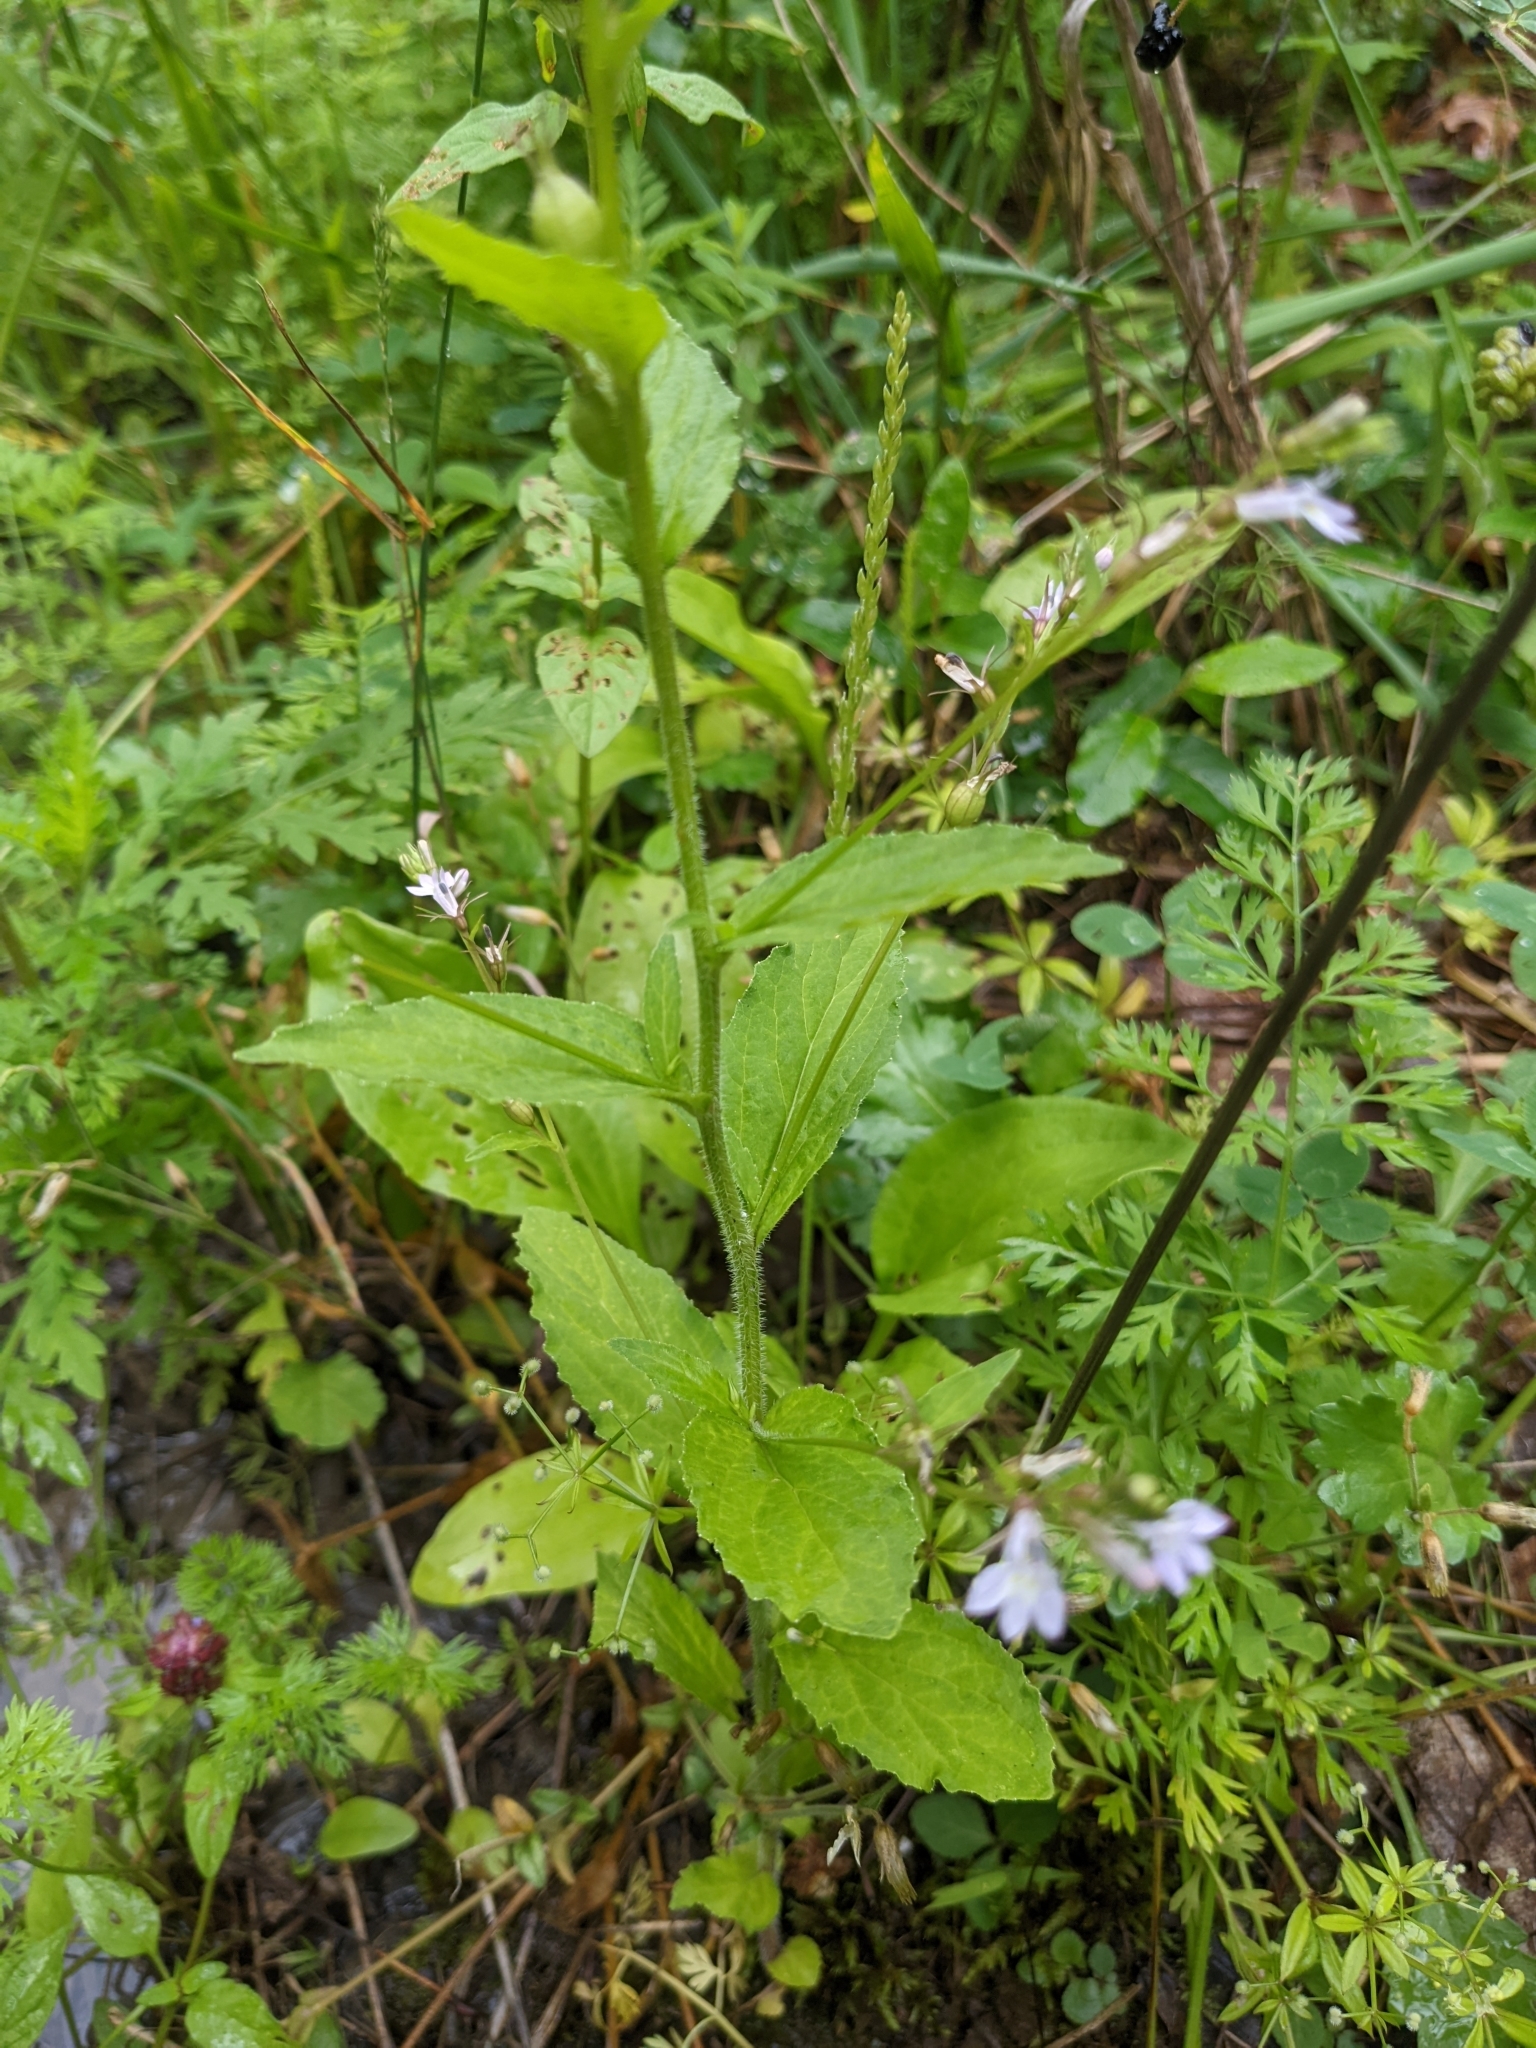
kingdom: Plantae
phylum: Tracheophyta
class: Magnoliopsida
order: Asterales
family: Campanulaceae
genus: Lobelia
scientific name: Lobelia inflata
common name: Indian tobacco
